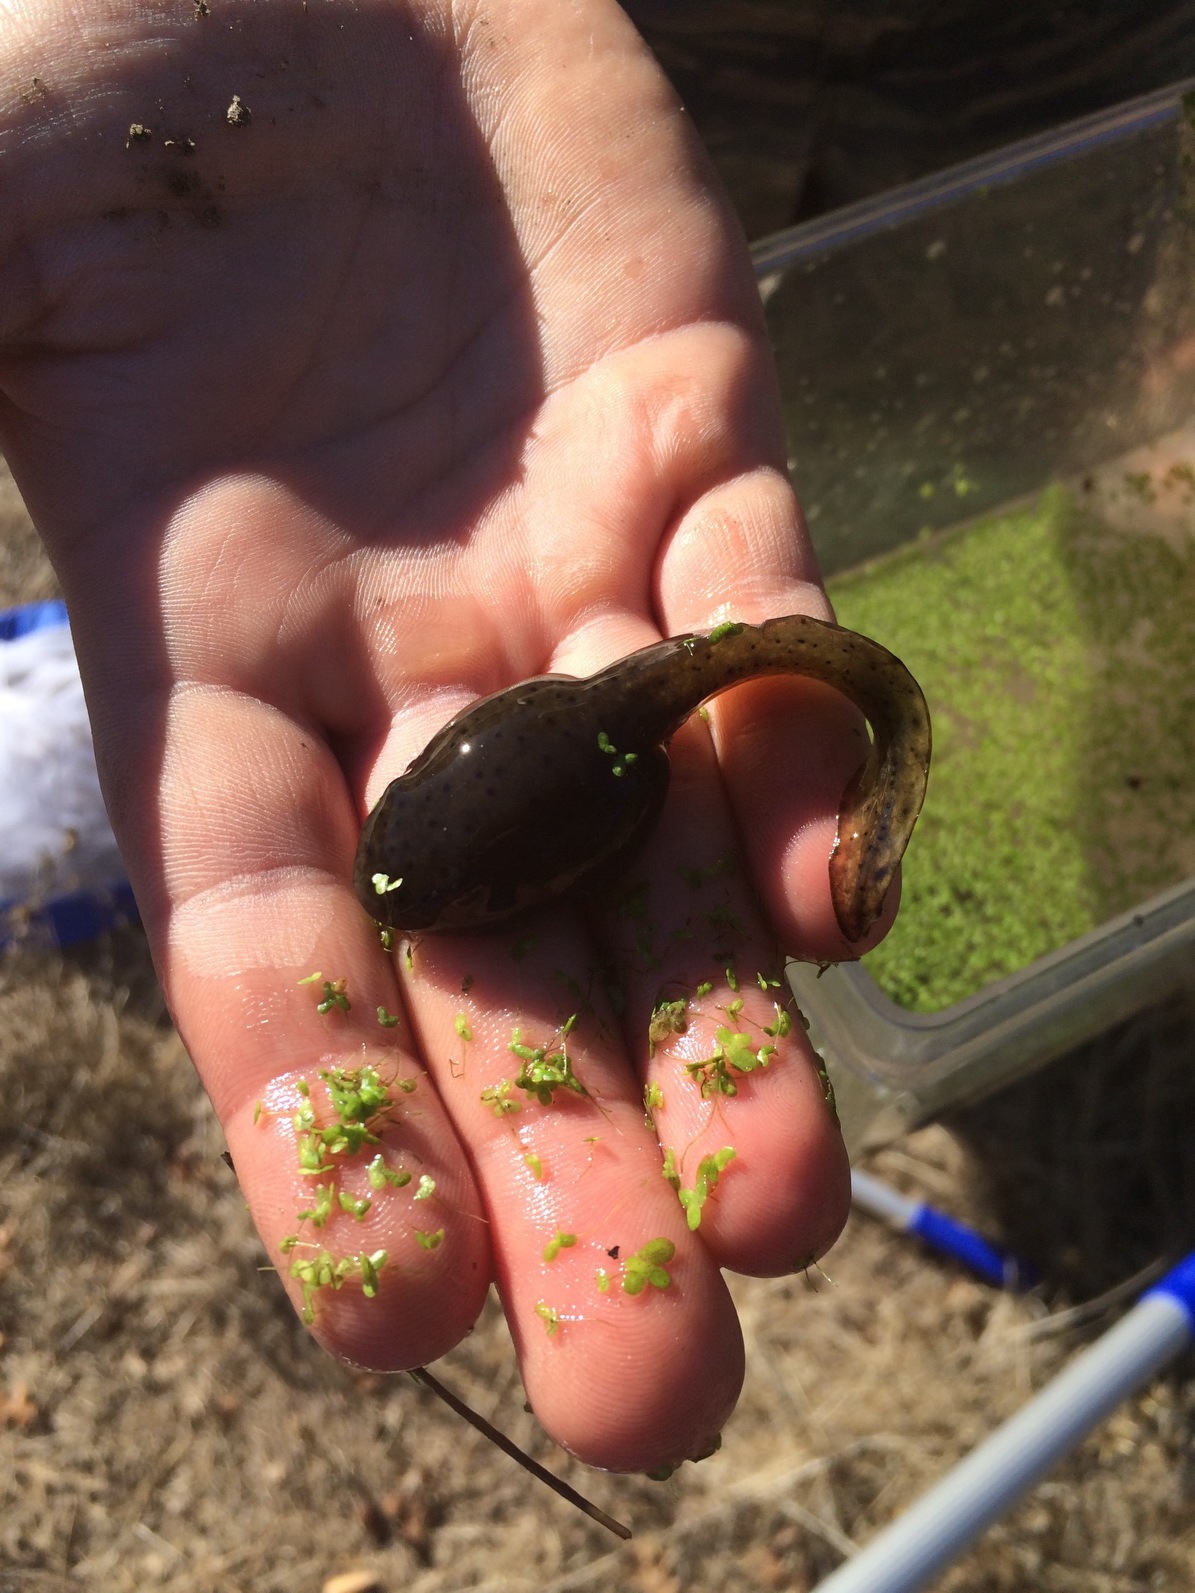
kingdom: Animalia
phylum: Chordata
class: Amphibia
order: Anura
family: Ranidae
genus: Lithobates
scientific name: Lithobates catesbeianus
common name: American bullfrog
